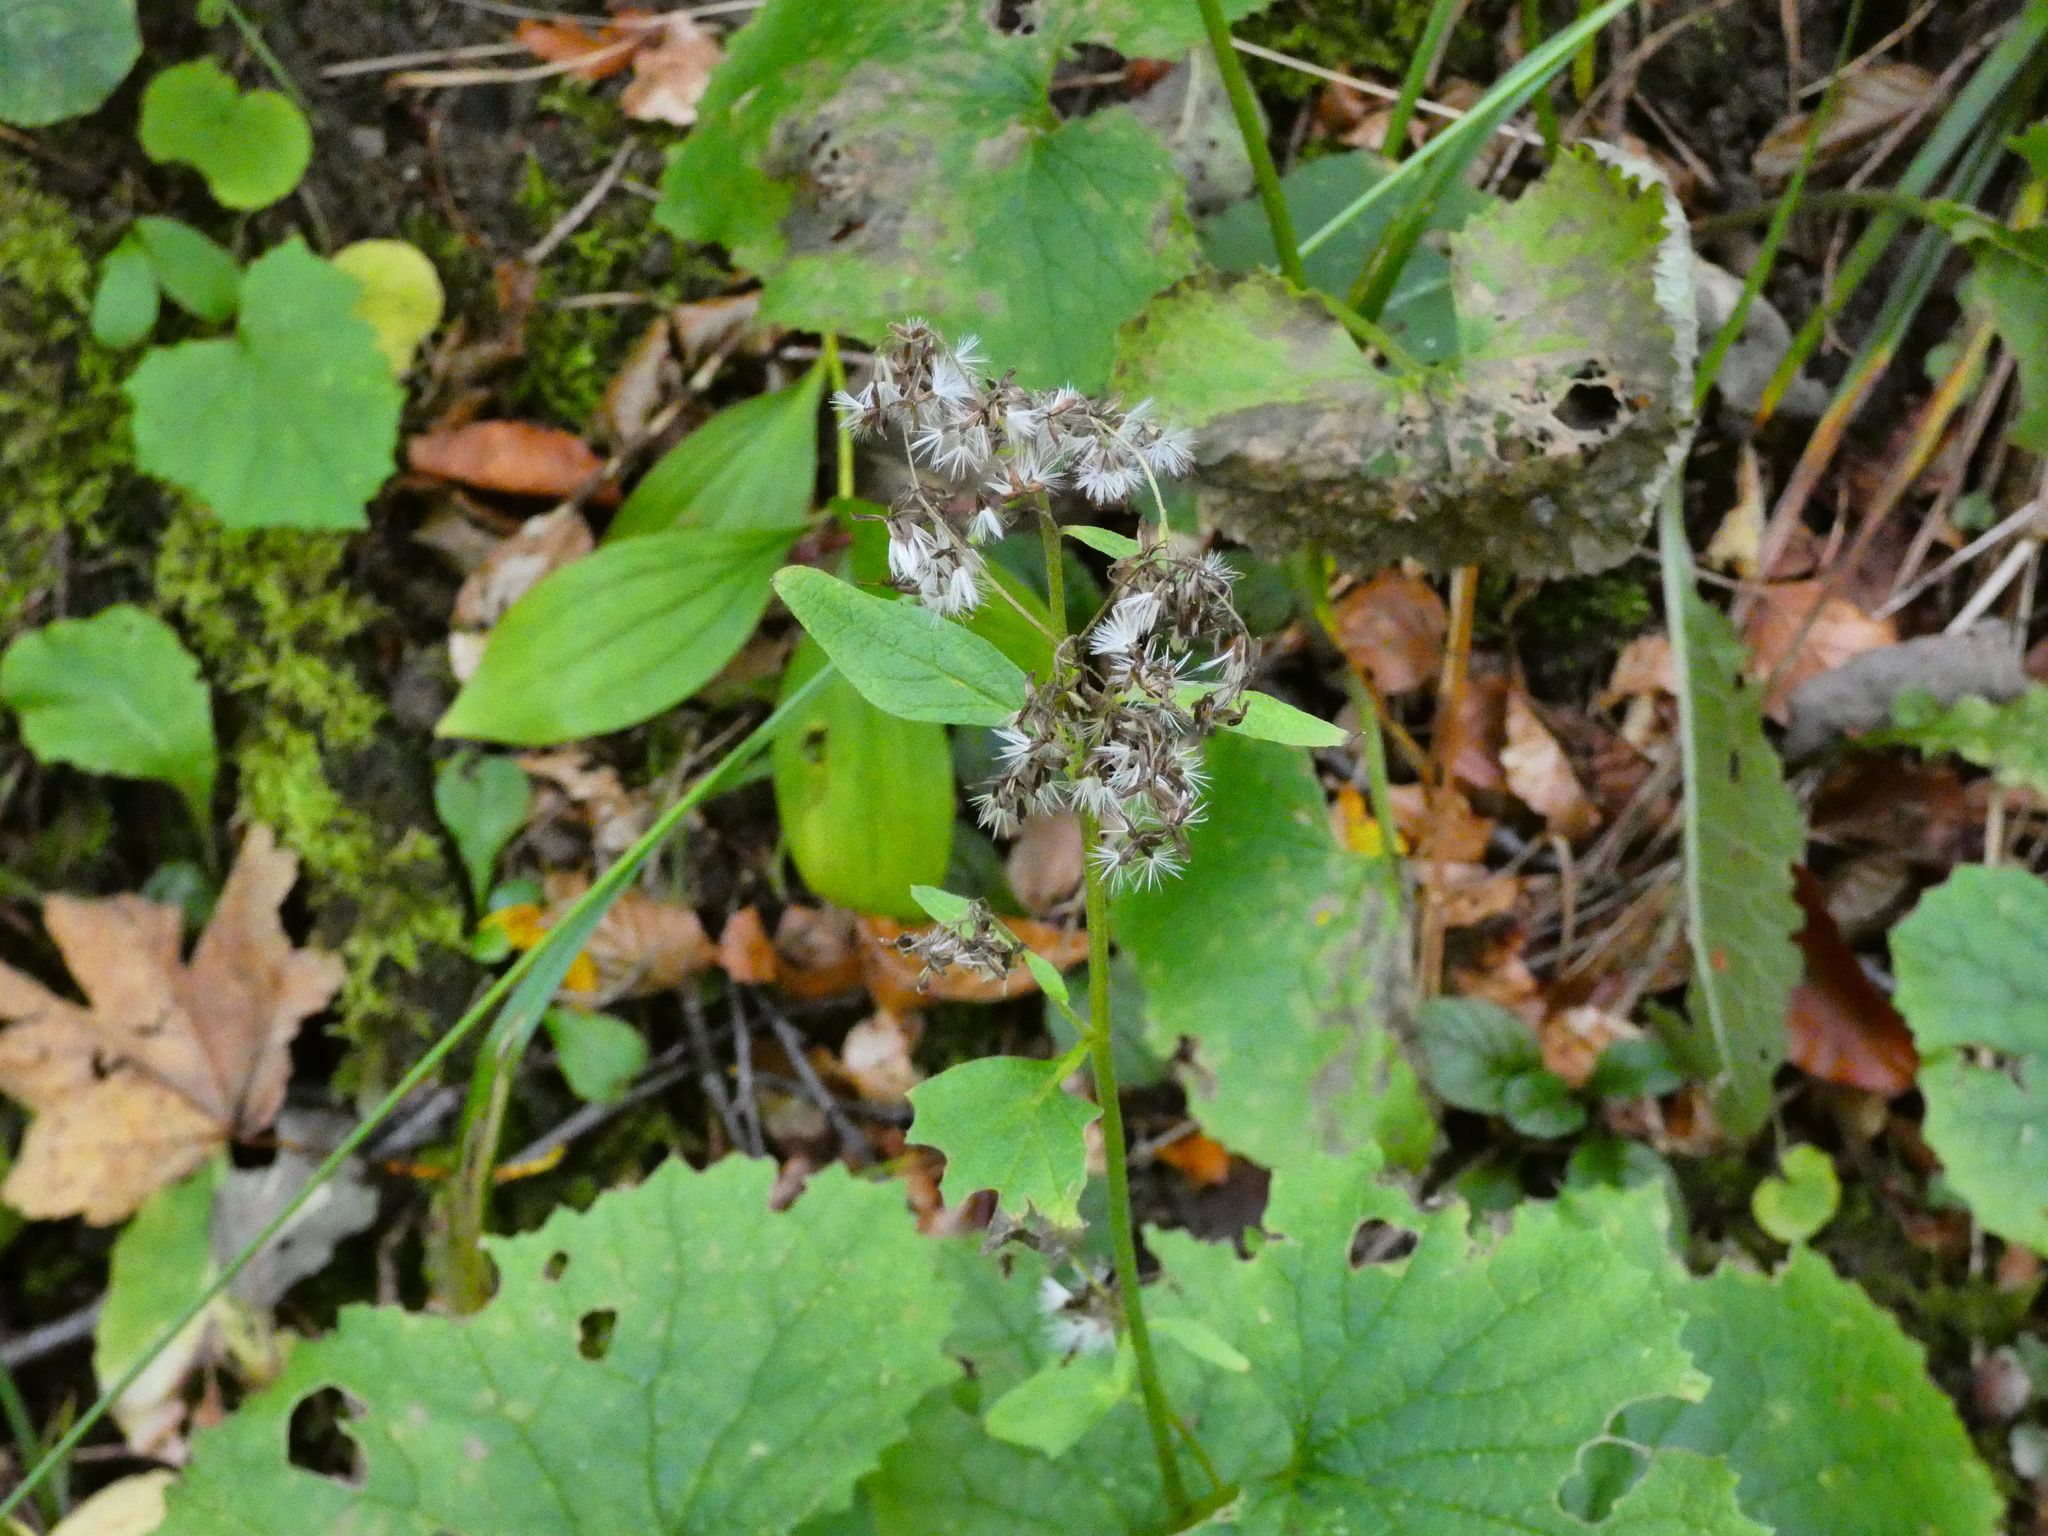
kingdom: Plantae
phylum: Tracheophyta
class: Magnoliopsida
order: Asterales
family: Asteraceae
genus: Adenostyles
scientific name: Adenostyles alpina
